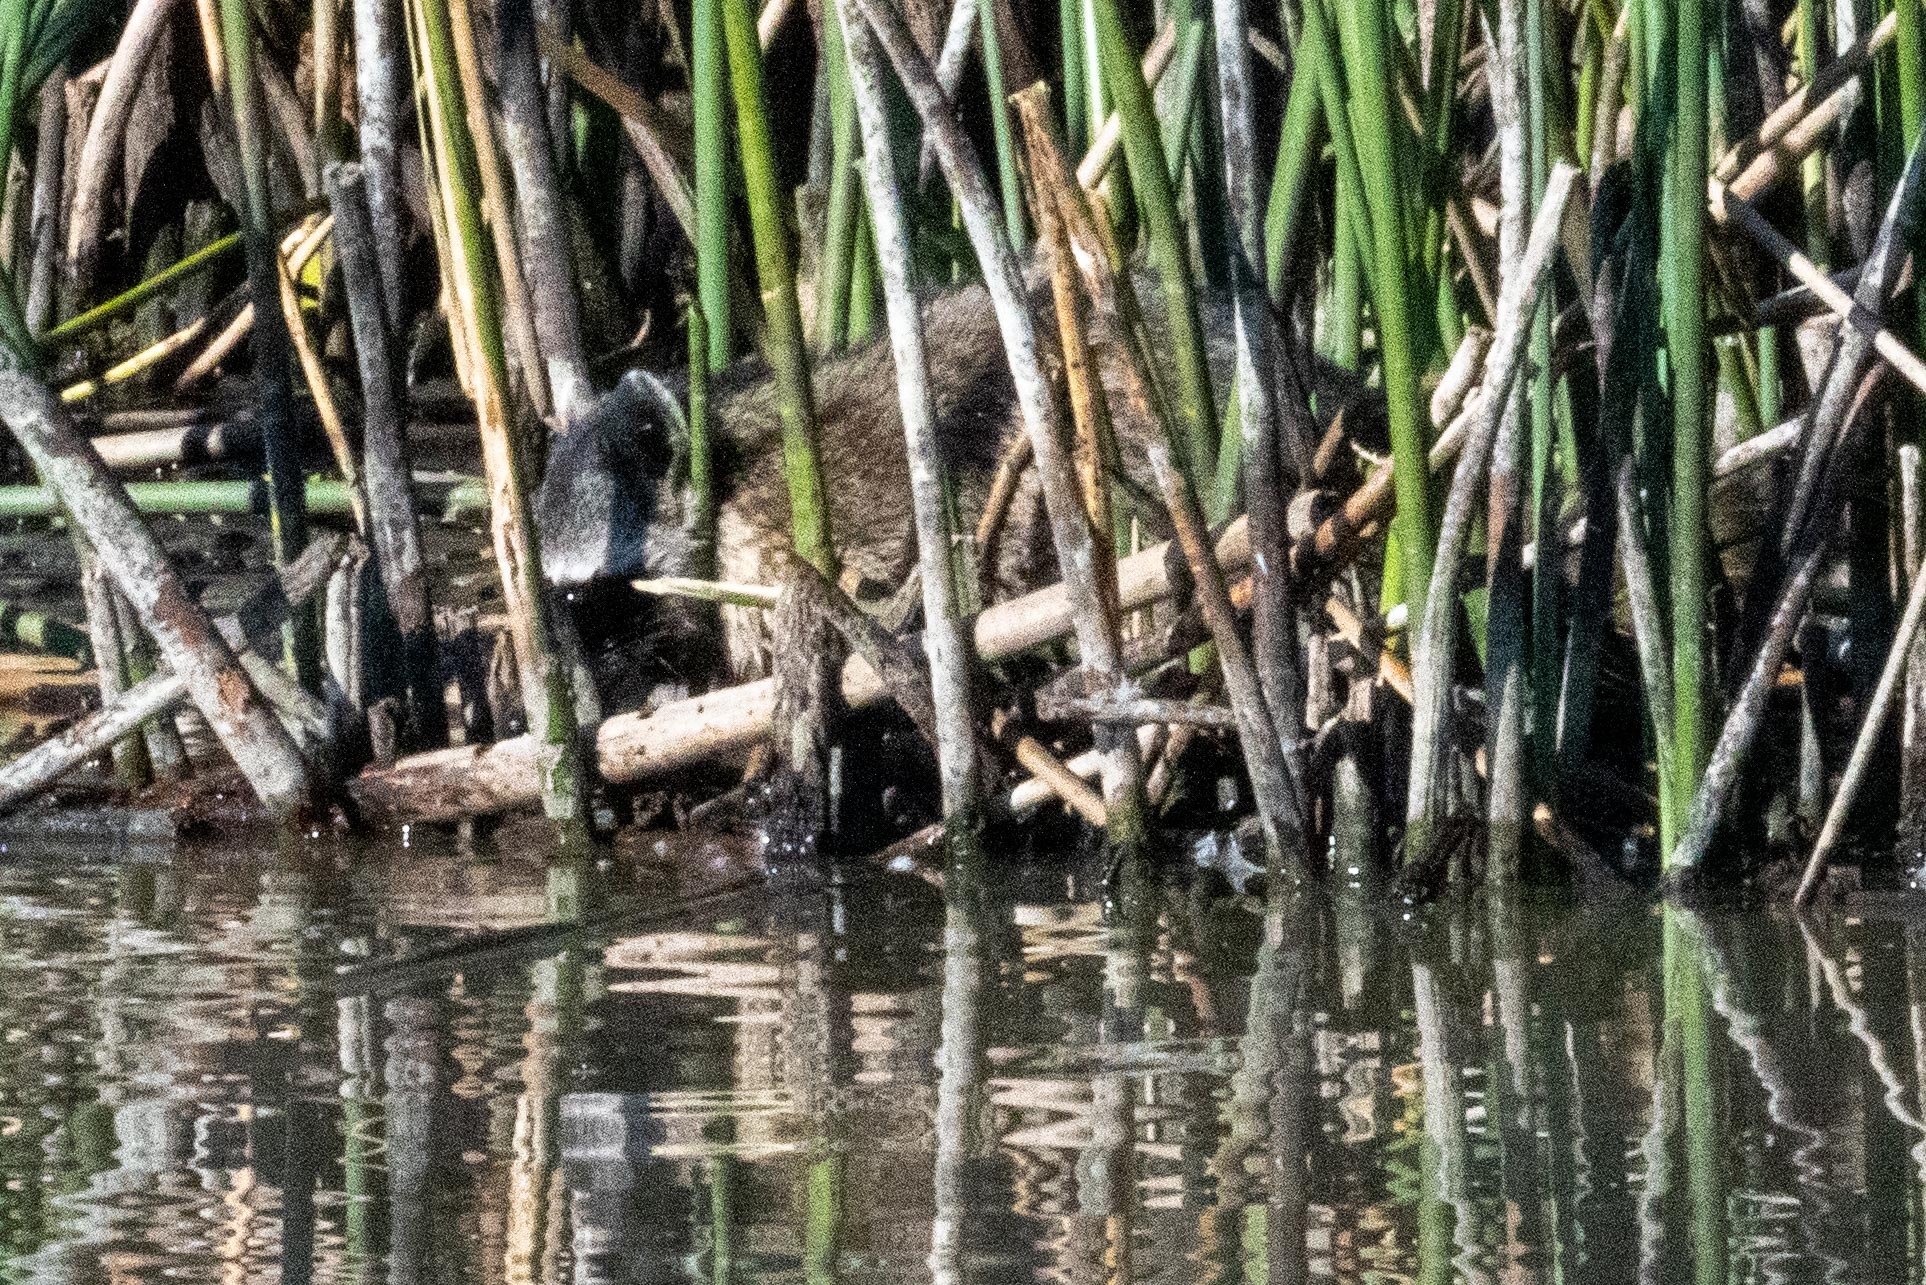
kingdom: Animalia
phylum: Chordata
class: Mammalia
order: Carnivora
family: Procyonidae
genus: Procyon
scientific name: Procyon lotor
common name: Raccoon
